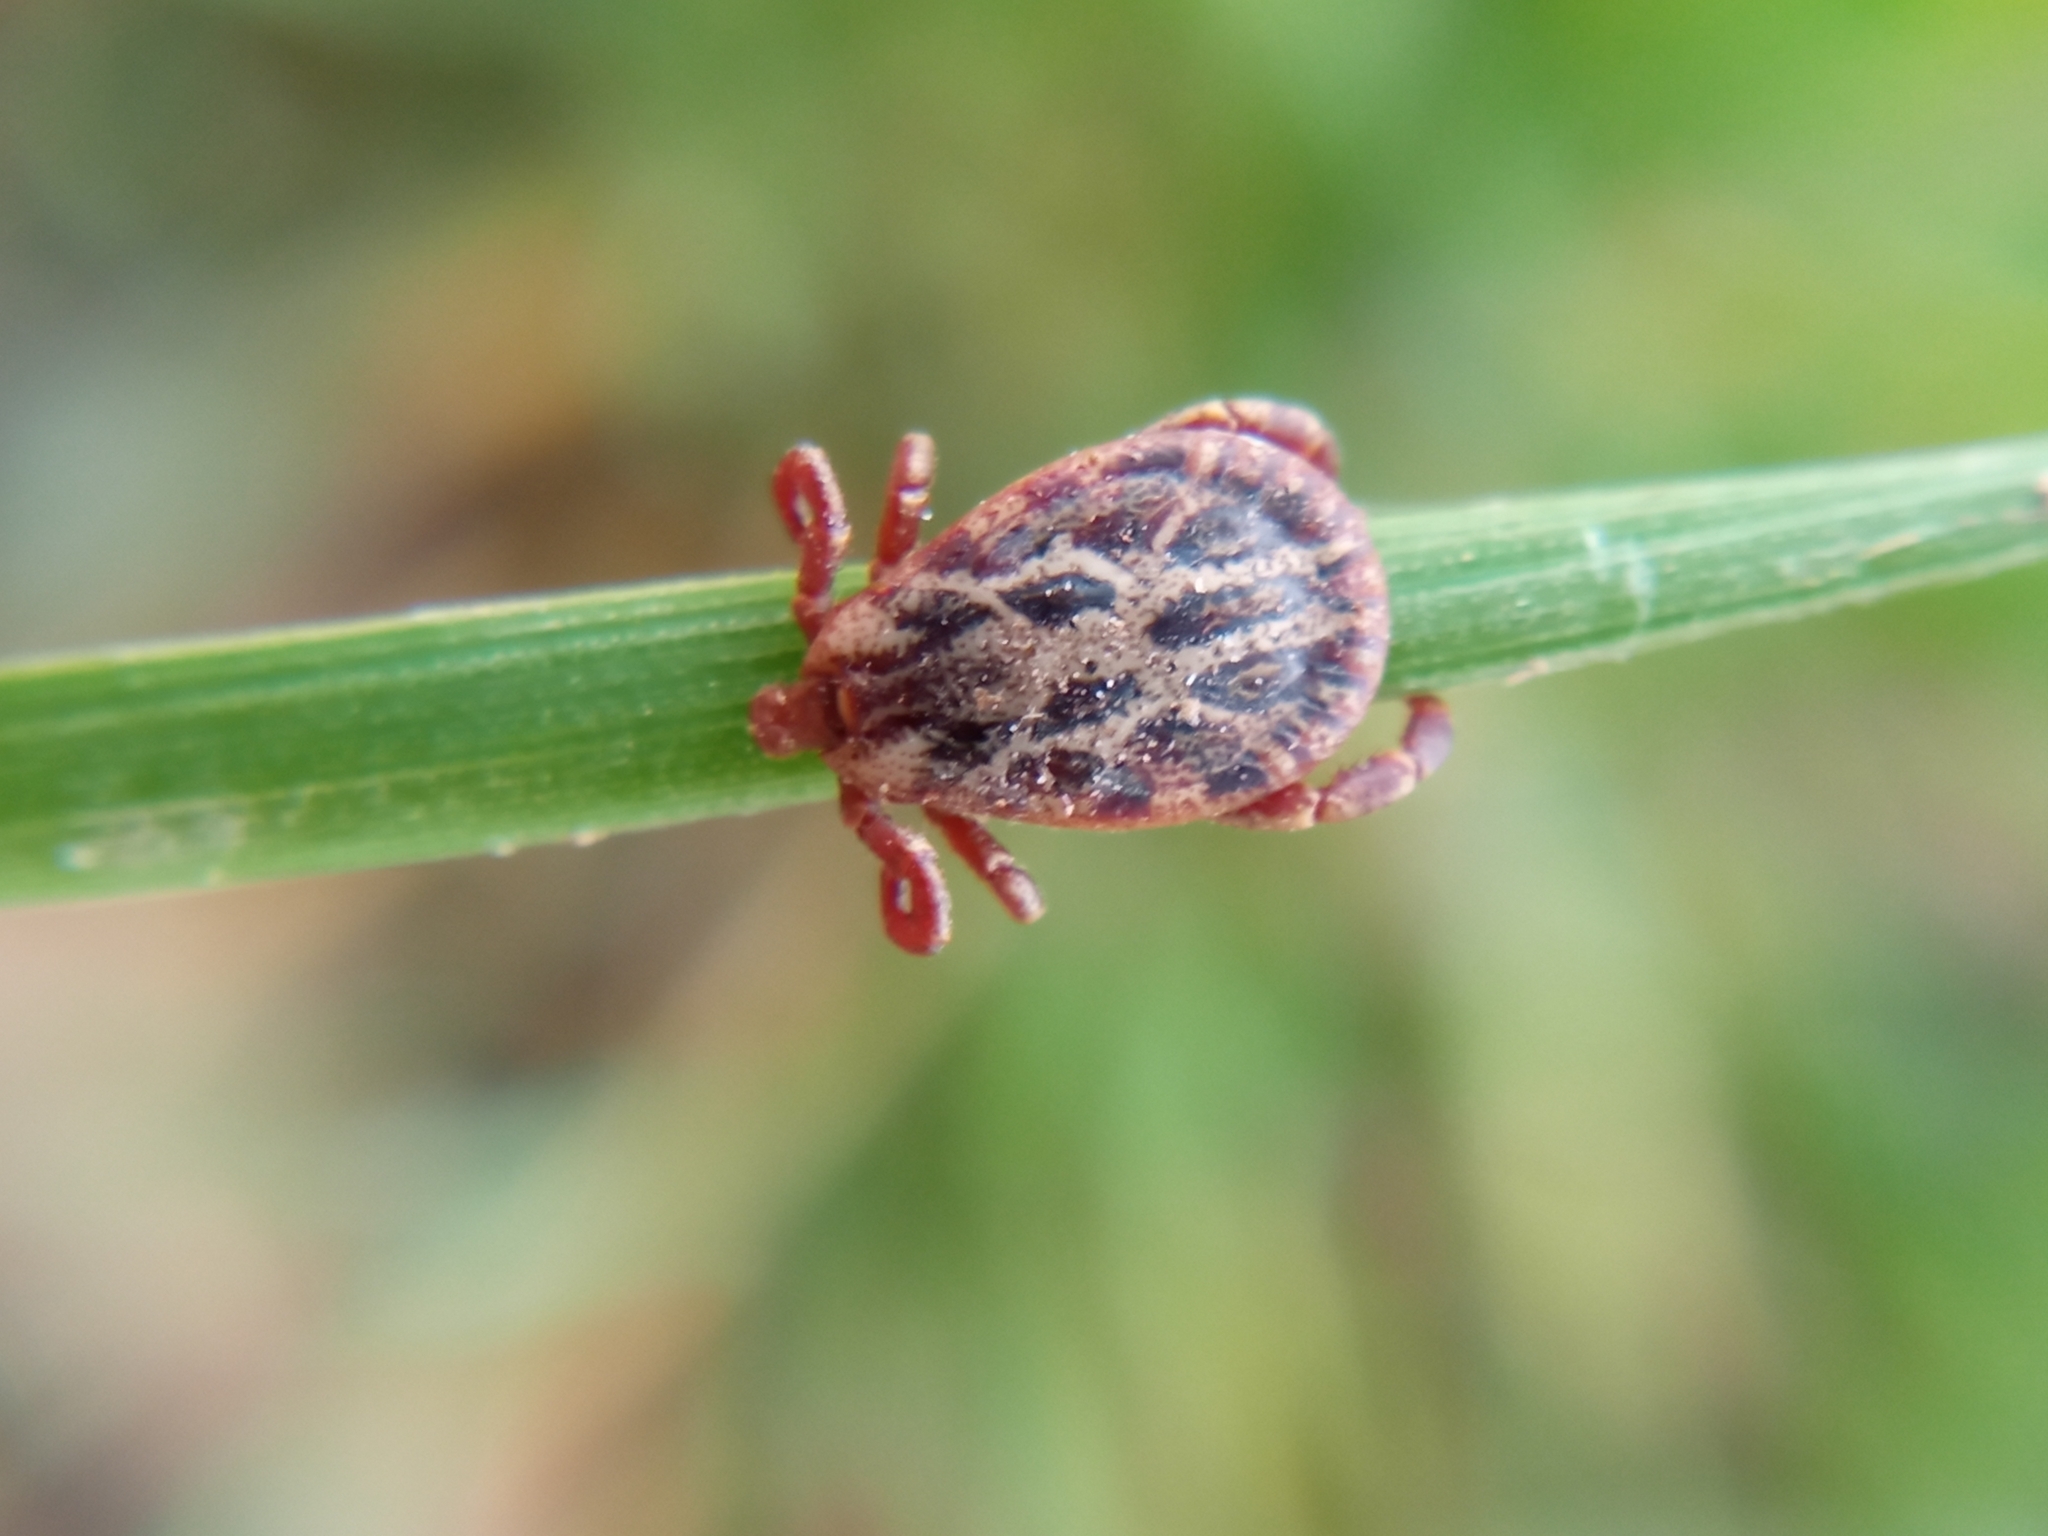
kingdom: Animalia
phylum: Arthropoda
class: Arachnida
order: Ixodida
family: Ixodidae
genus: Dermacentor
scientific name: Dermacentor marginatus
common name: Ornate sheep tick
